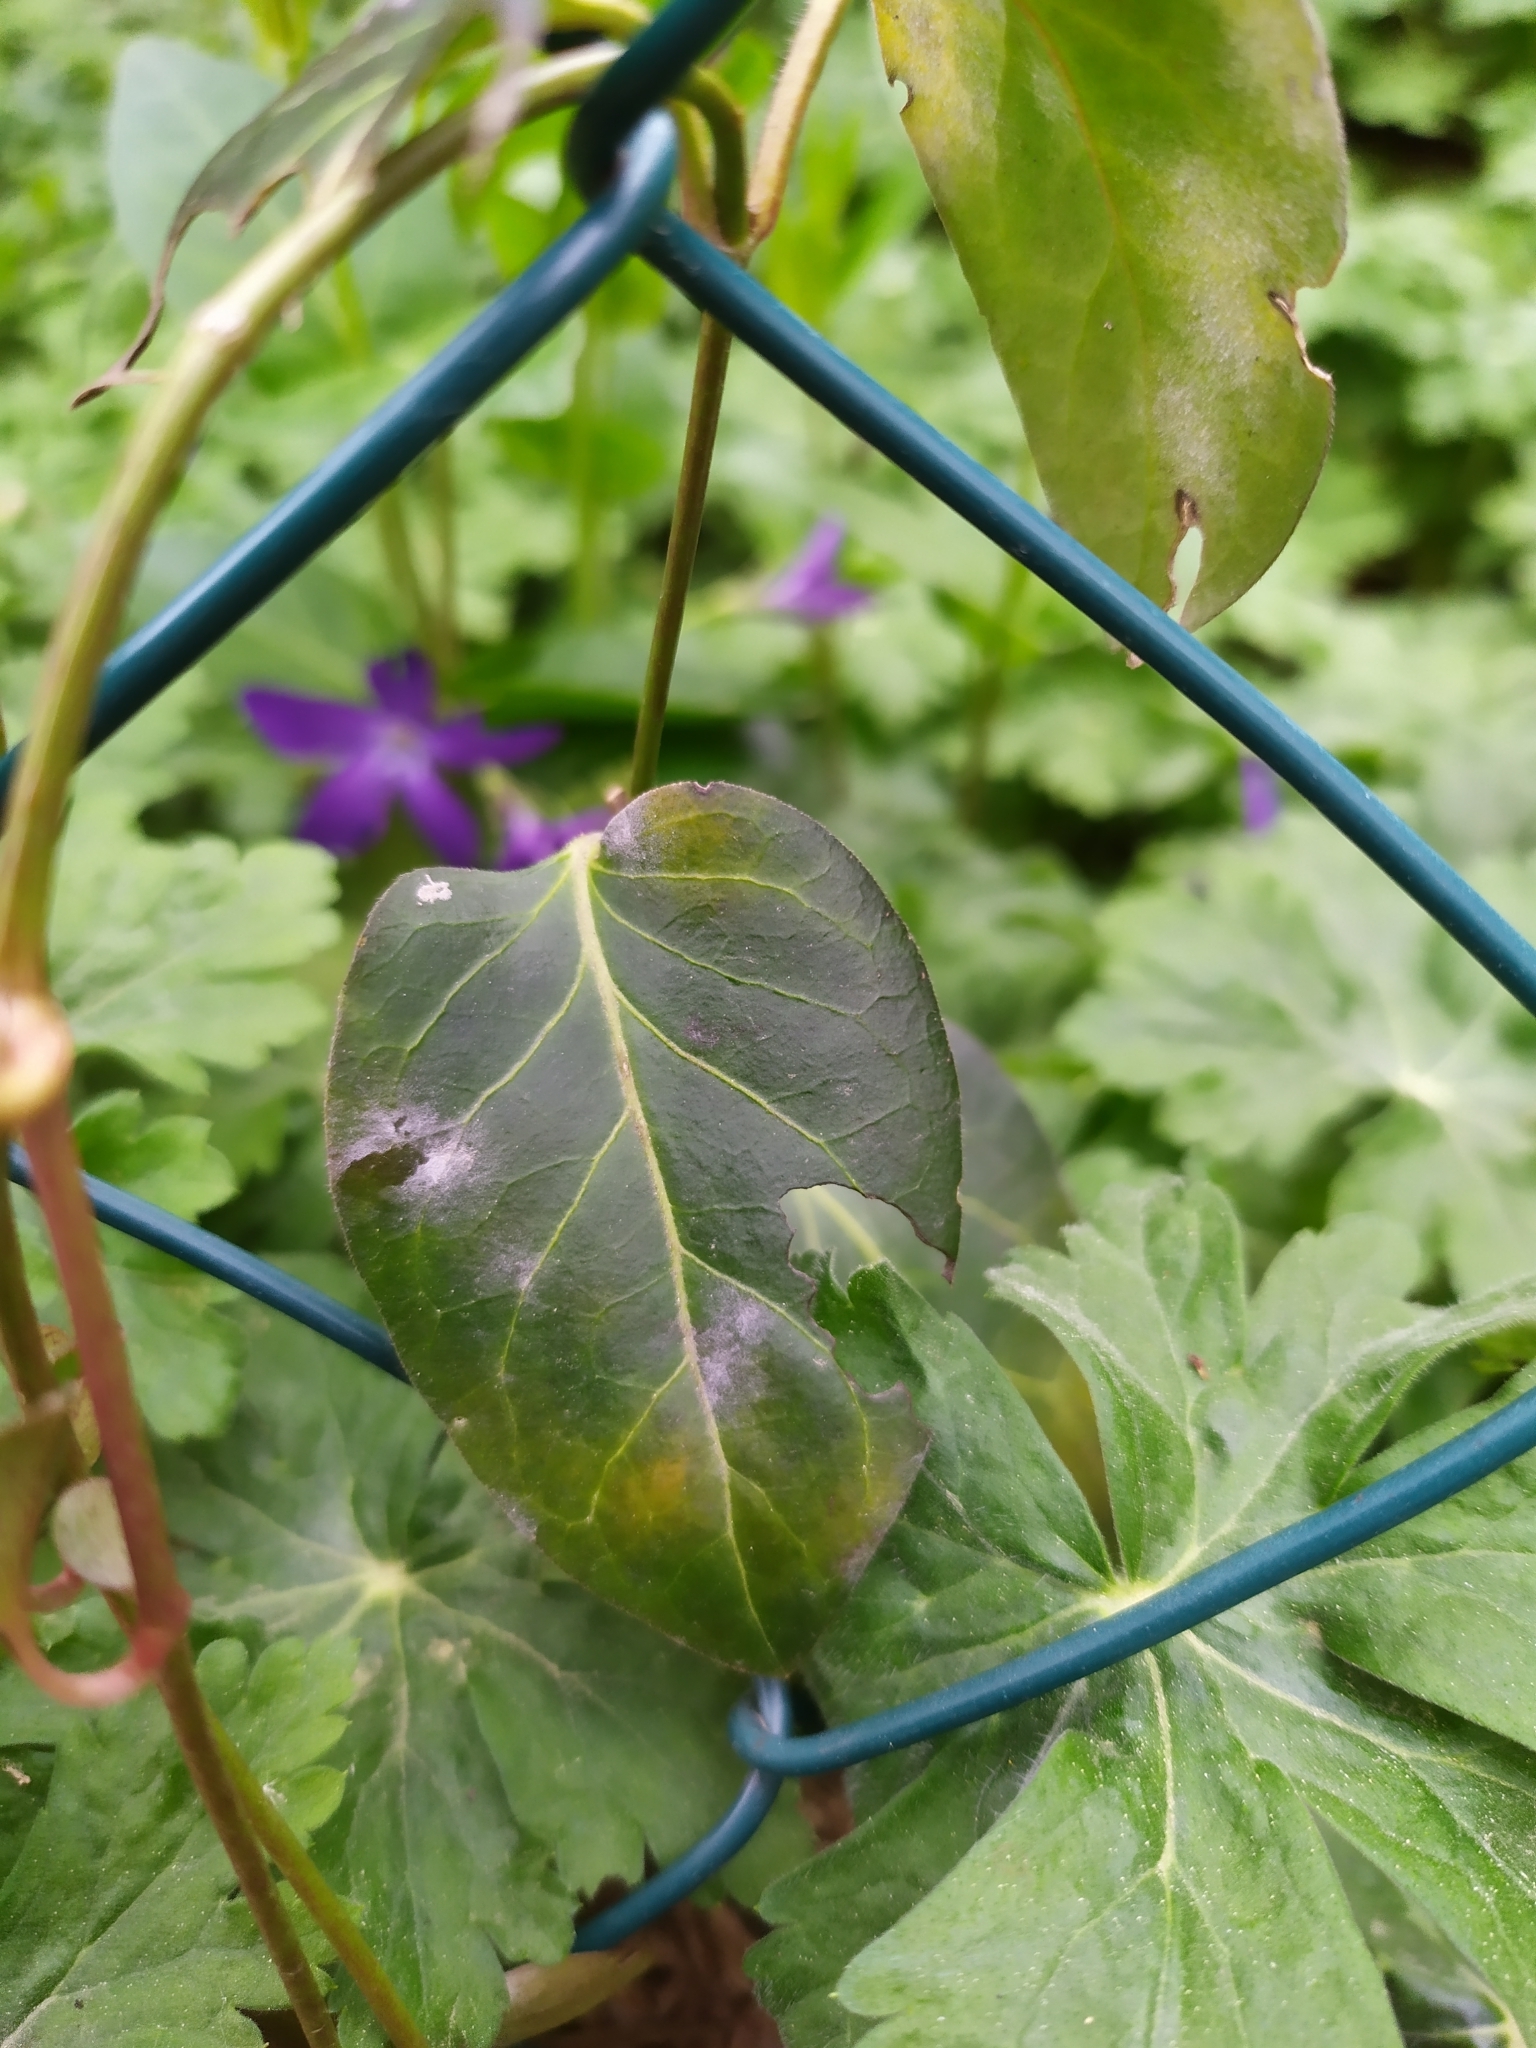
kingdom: Fungi
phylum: Ascomycota
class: Leotiomycetes
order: Helotiales
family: Erysiphaceae
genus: Golovinomyces
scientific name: Golovinomyces vincae
